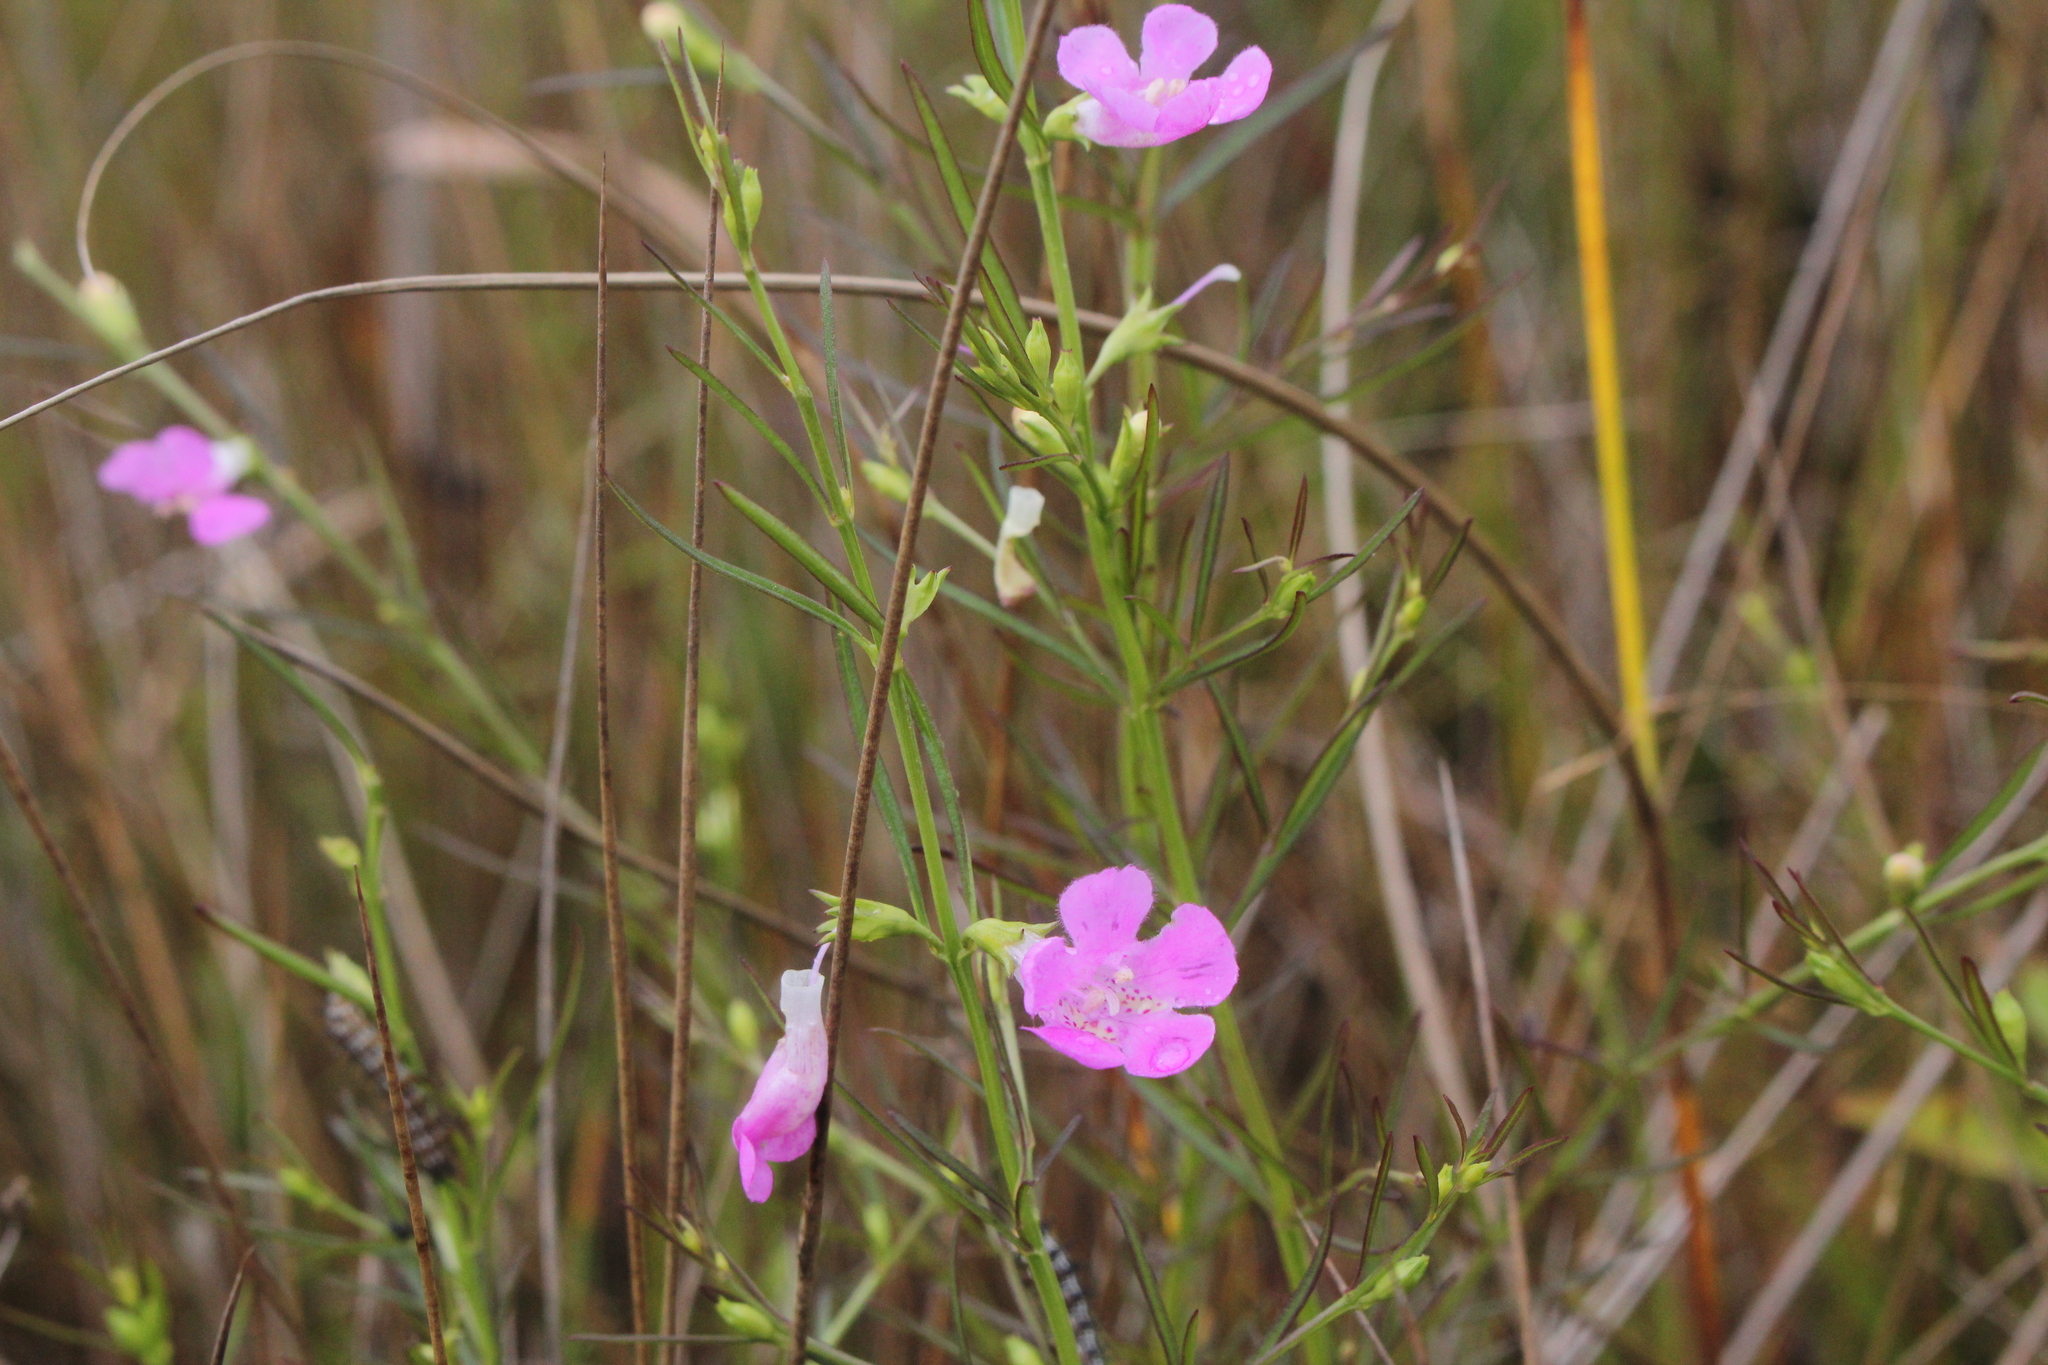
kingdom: Plantae
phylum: Tracheophyta
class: Magnoliopsida
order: Lamiales
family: Orobanchaceae
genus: Agalinis
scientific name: Agalinis purpurea
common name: Purple false foxglove
